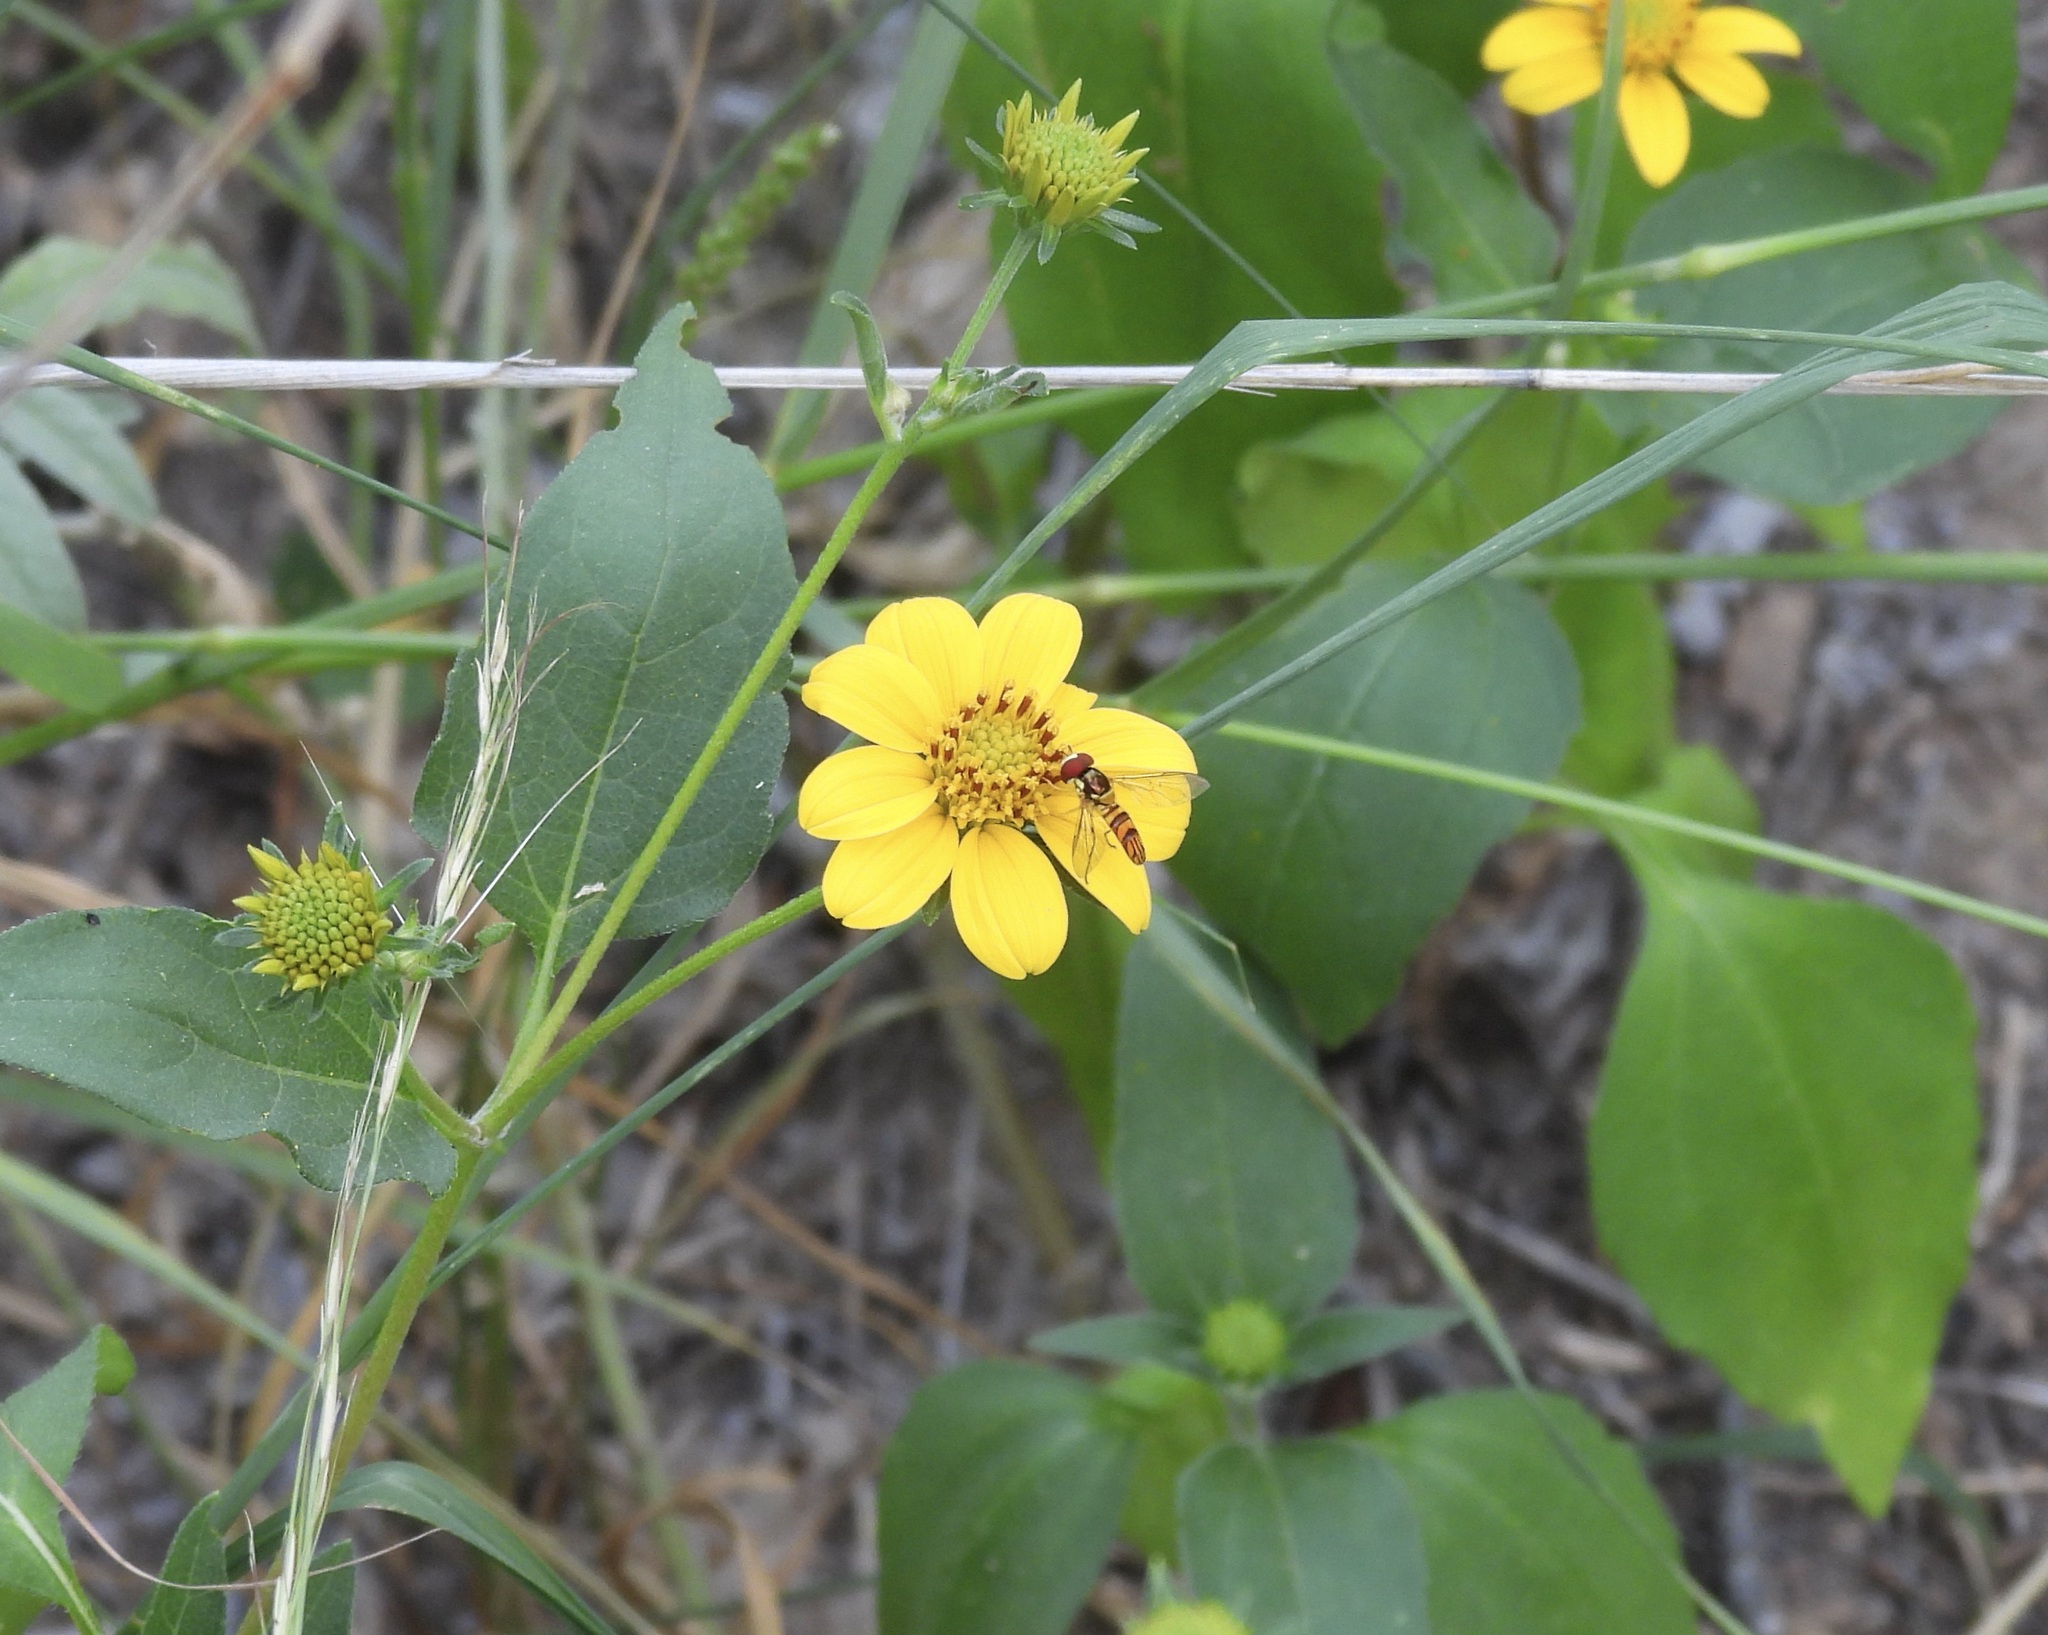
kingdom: Animalia
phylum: Arthropoda
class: Insecta
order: Diptera
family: Syrphidae
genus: Allograpta
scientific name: Allograpta obliqua
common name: Common oblique syrphid
